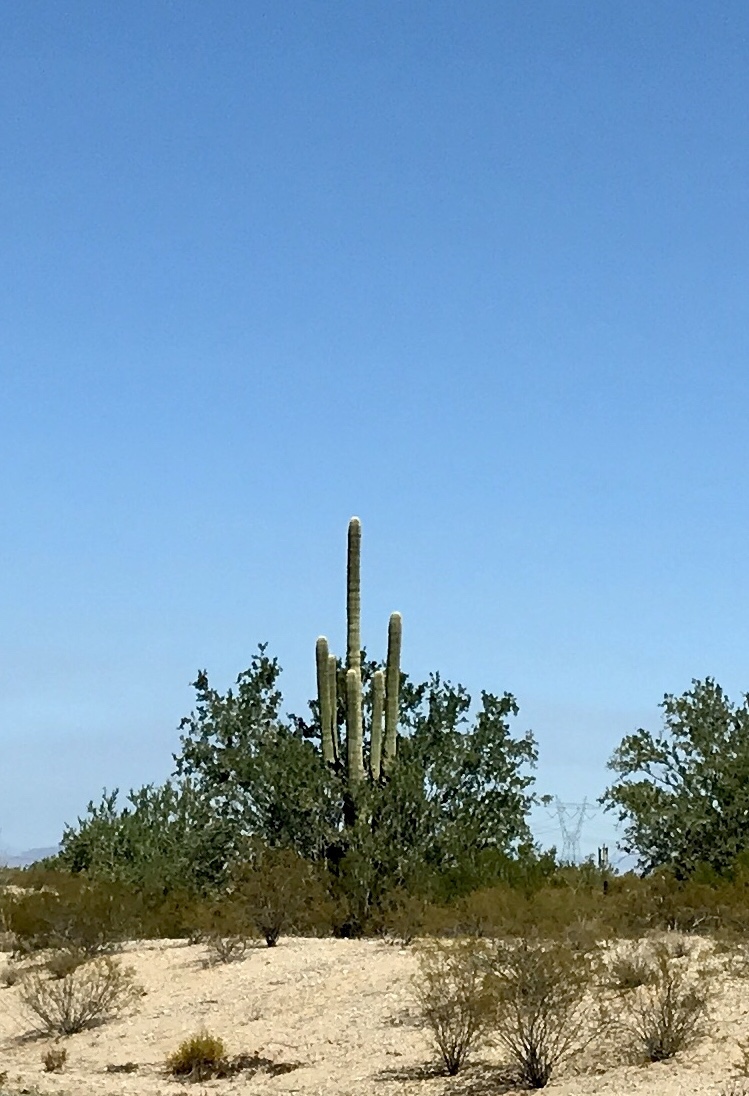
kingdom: Plantae
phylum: Tracheophyta
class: Magnoliopsida
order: Caryophyllales
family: Cactaceae
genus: Carnegiea
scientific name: Carnegiea gigantea
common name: Saguaro
